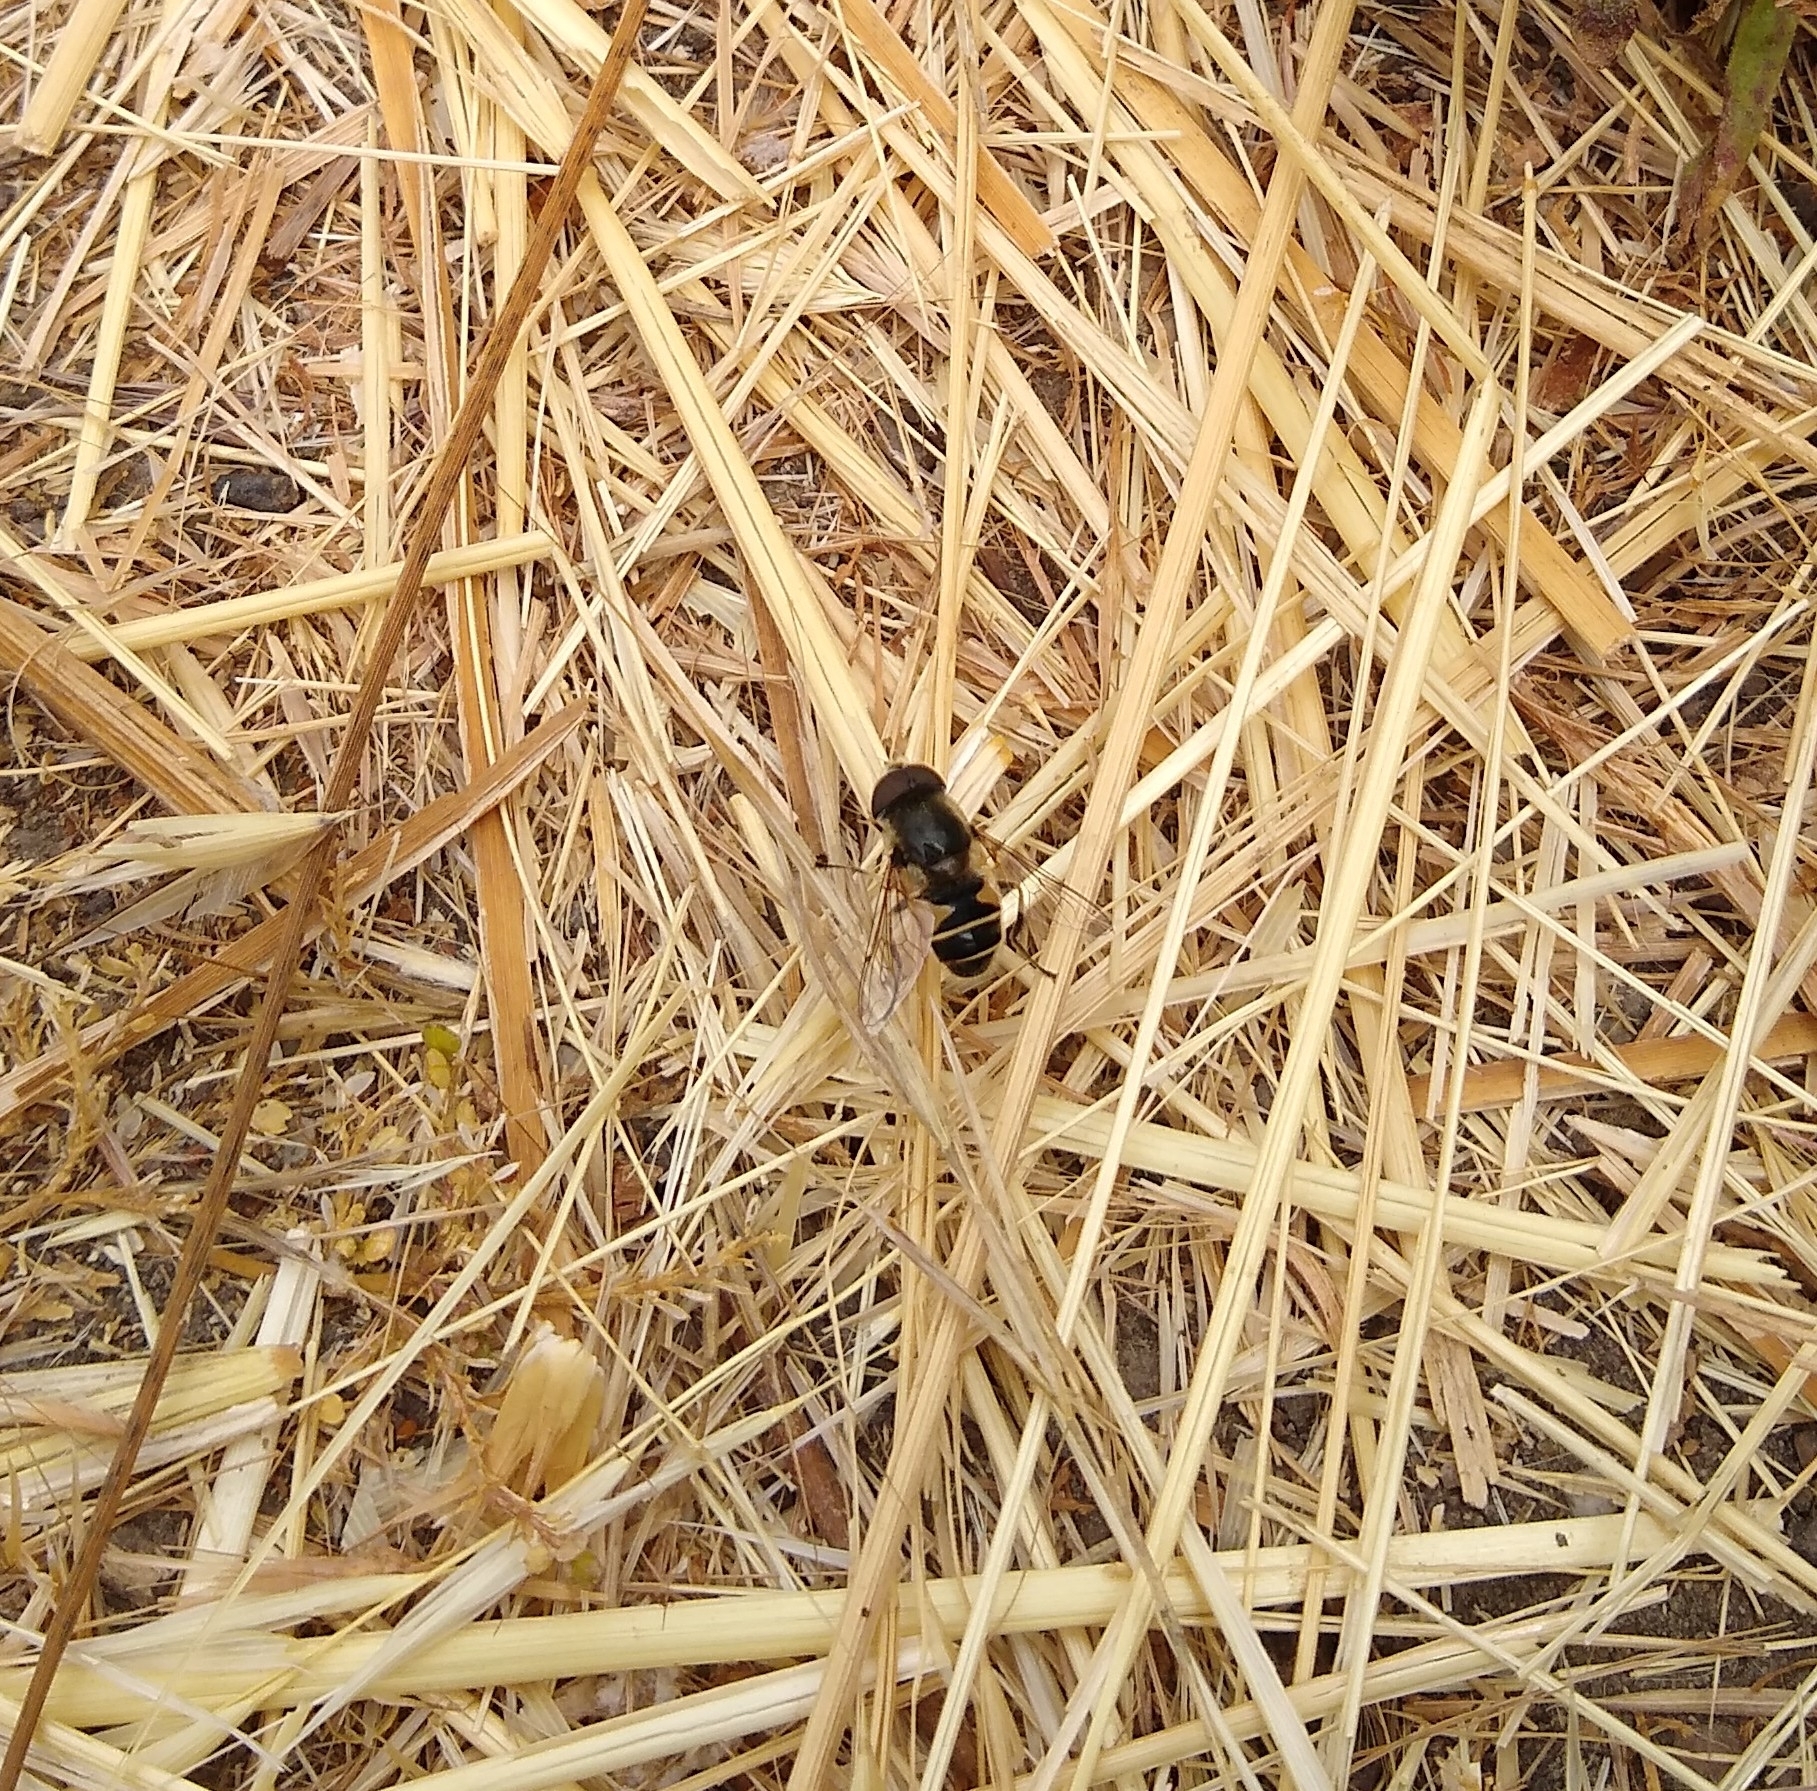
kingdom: Animalia
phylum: Arthropoda
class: Insecta
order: Diptera
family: Syrphidae
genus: Eristalis
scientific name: Eristalis hirta
